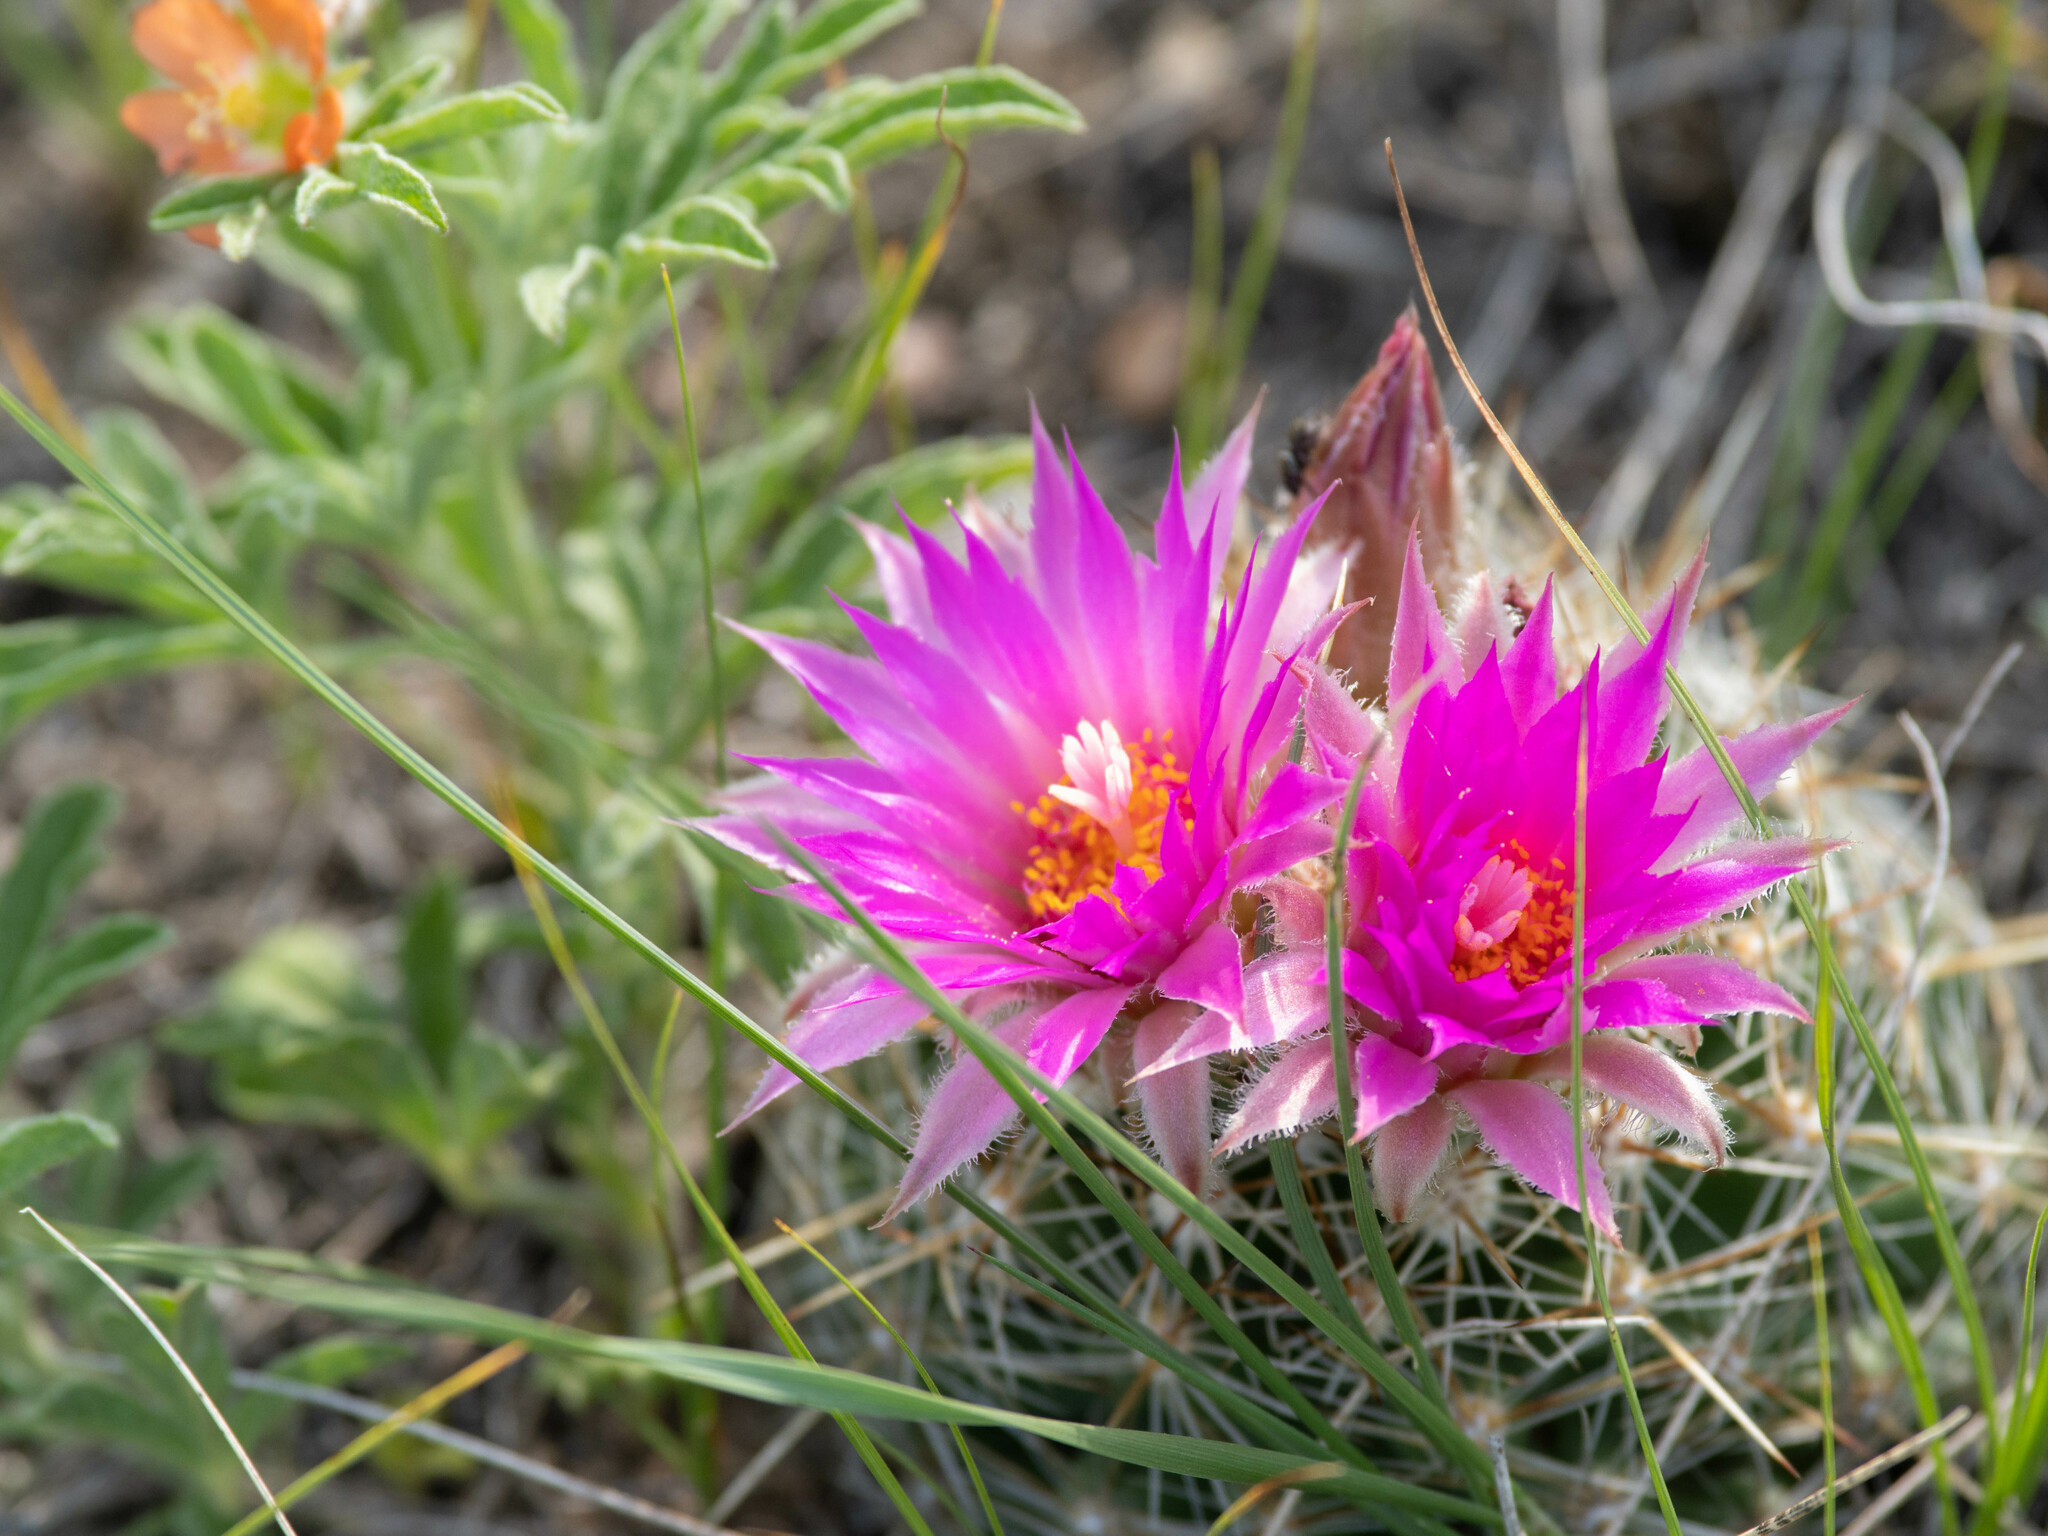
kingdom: Plantae
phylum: Tracheophyta
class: Magnoliopsida
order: Caryophyllales
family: Cactaceae
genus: Pelecyphora
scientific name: Pelecyphora vivipara
